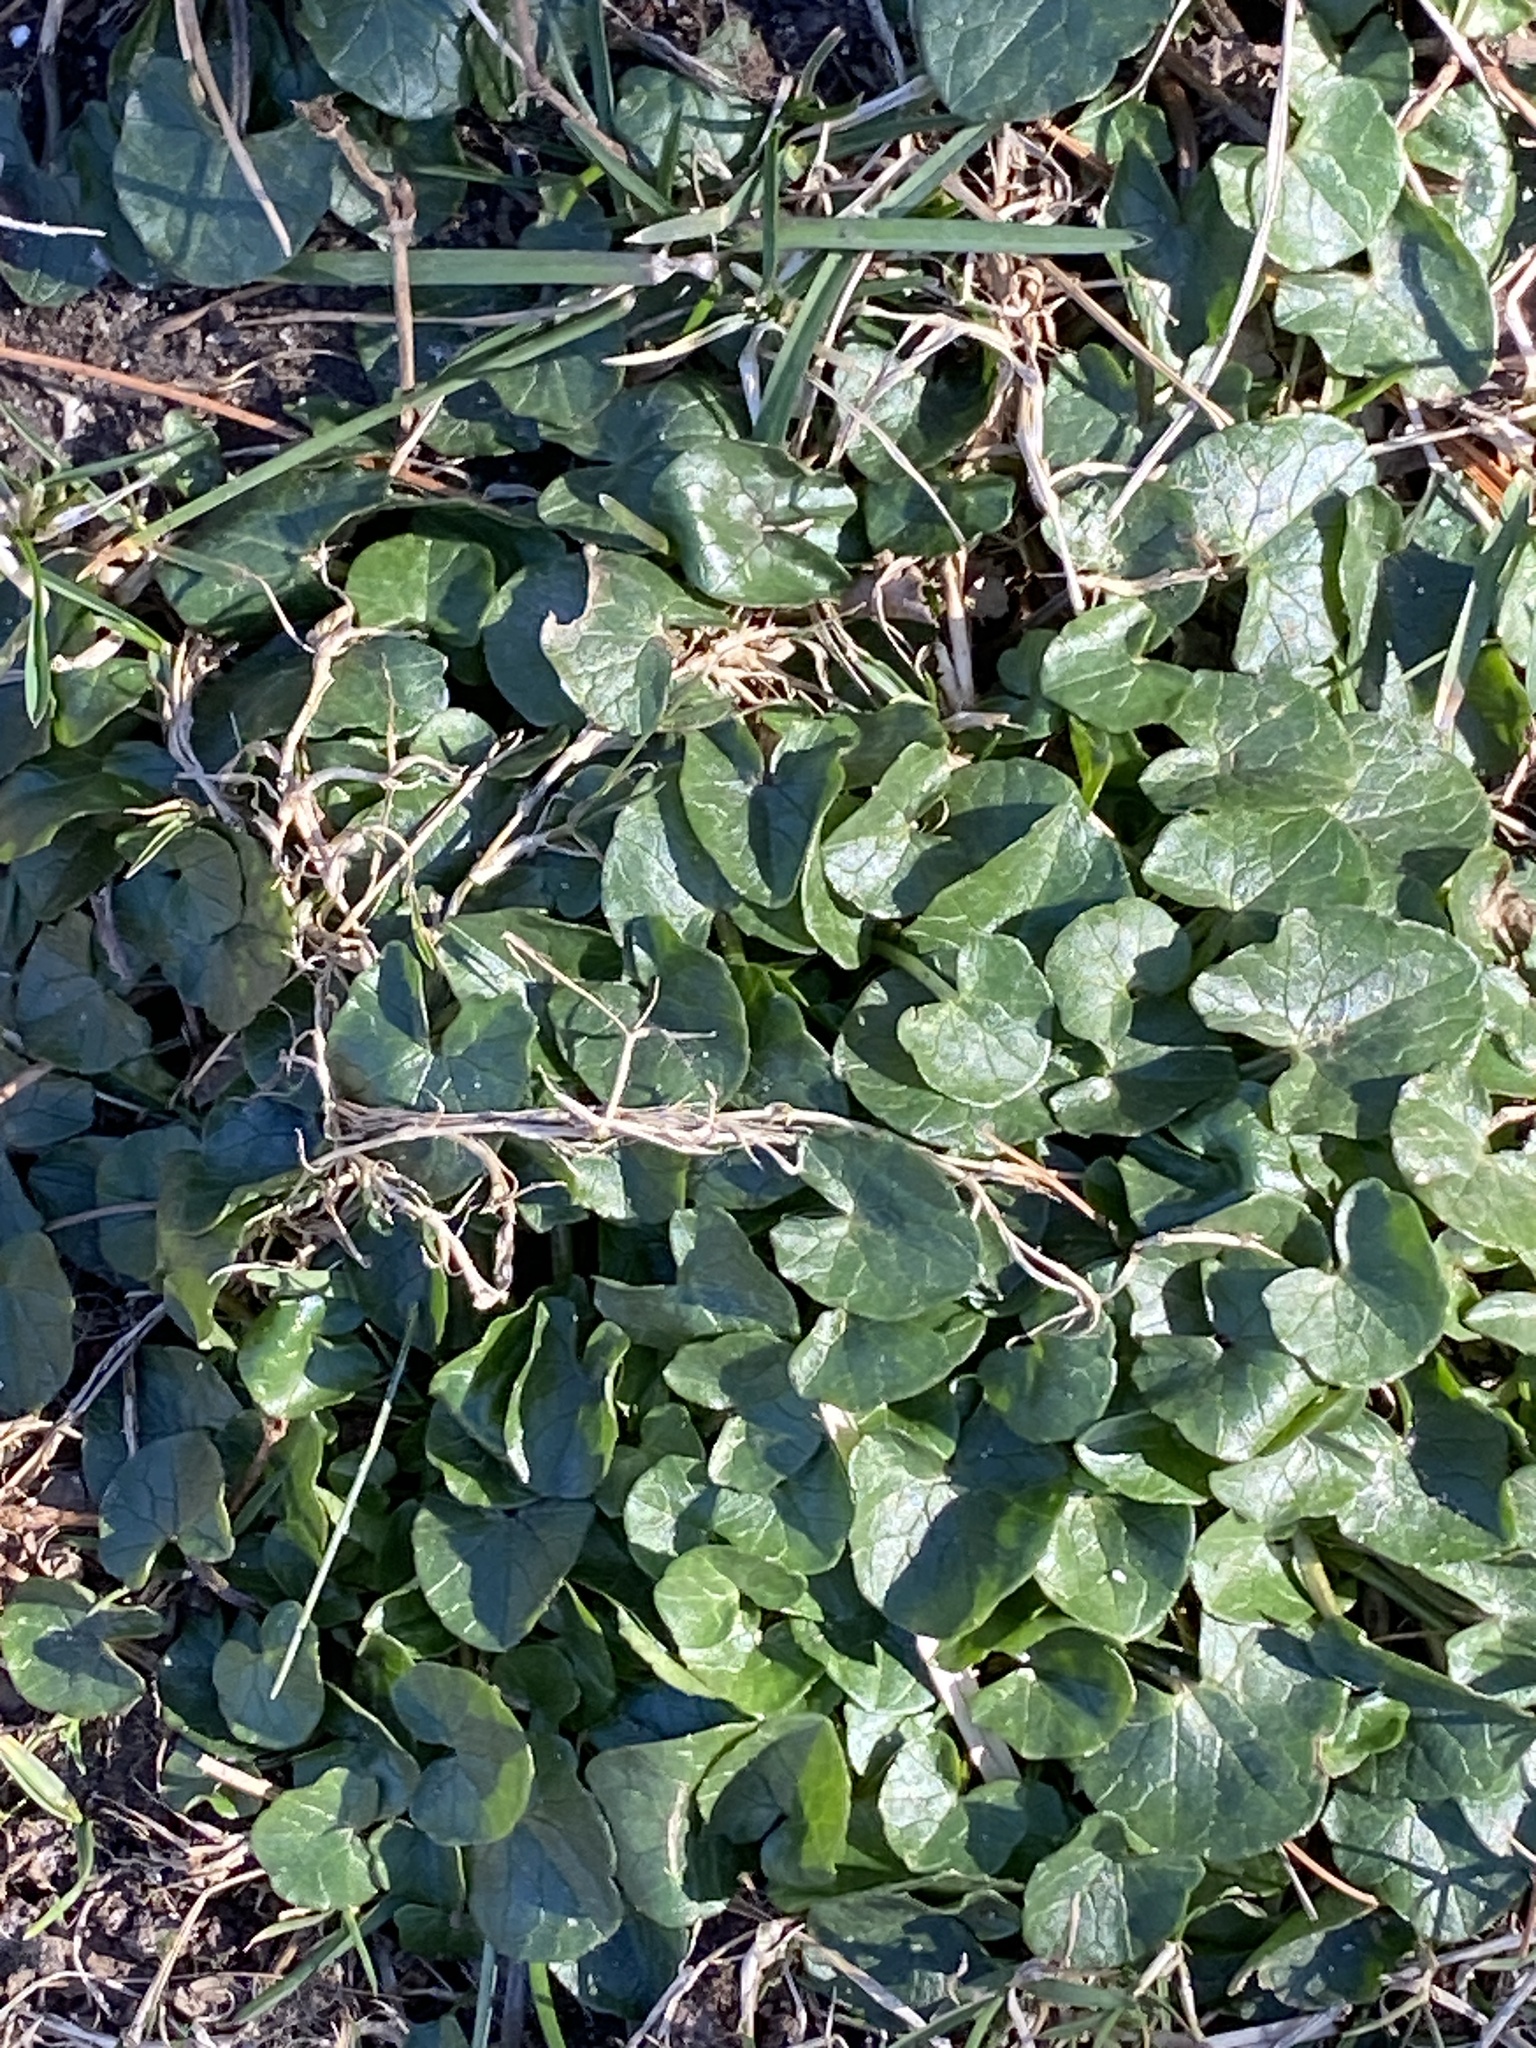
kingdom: Plantae
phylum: Tracheophyta
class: Magnoliopsida
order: Ranunculales
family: Ranunculaceae
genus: Ficaria
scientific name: Ficaria verna
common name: Lesser celandine
